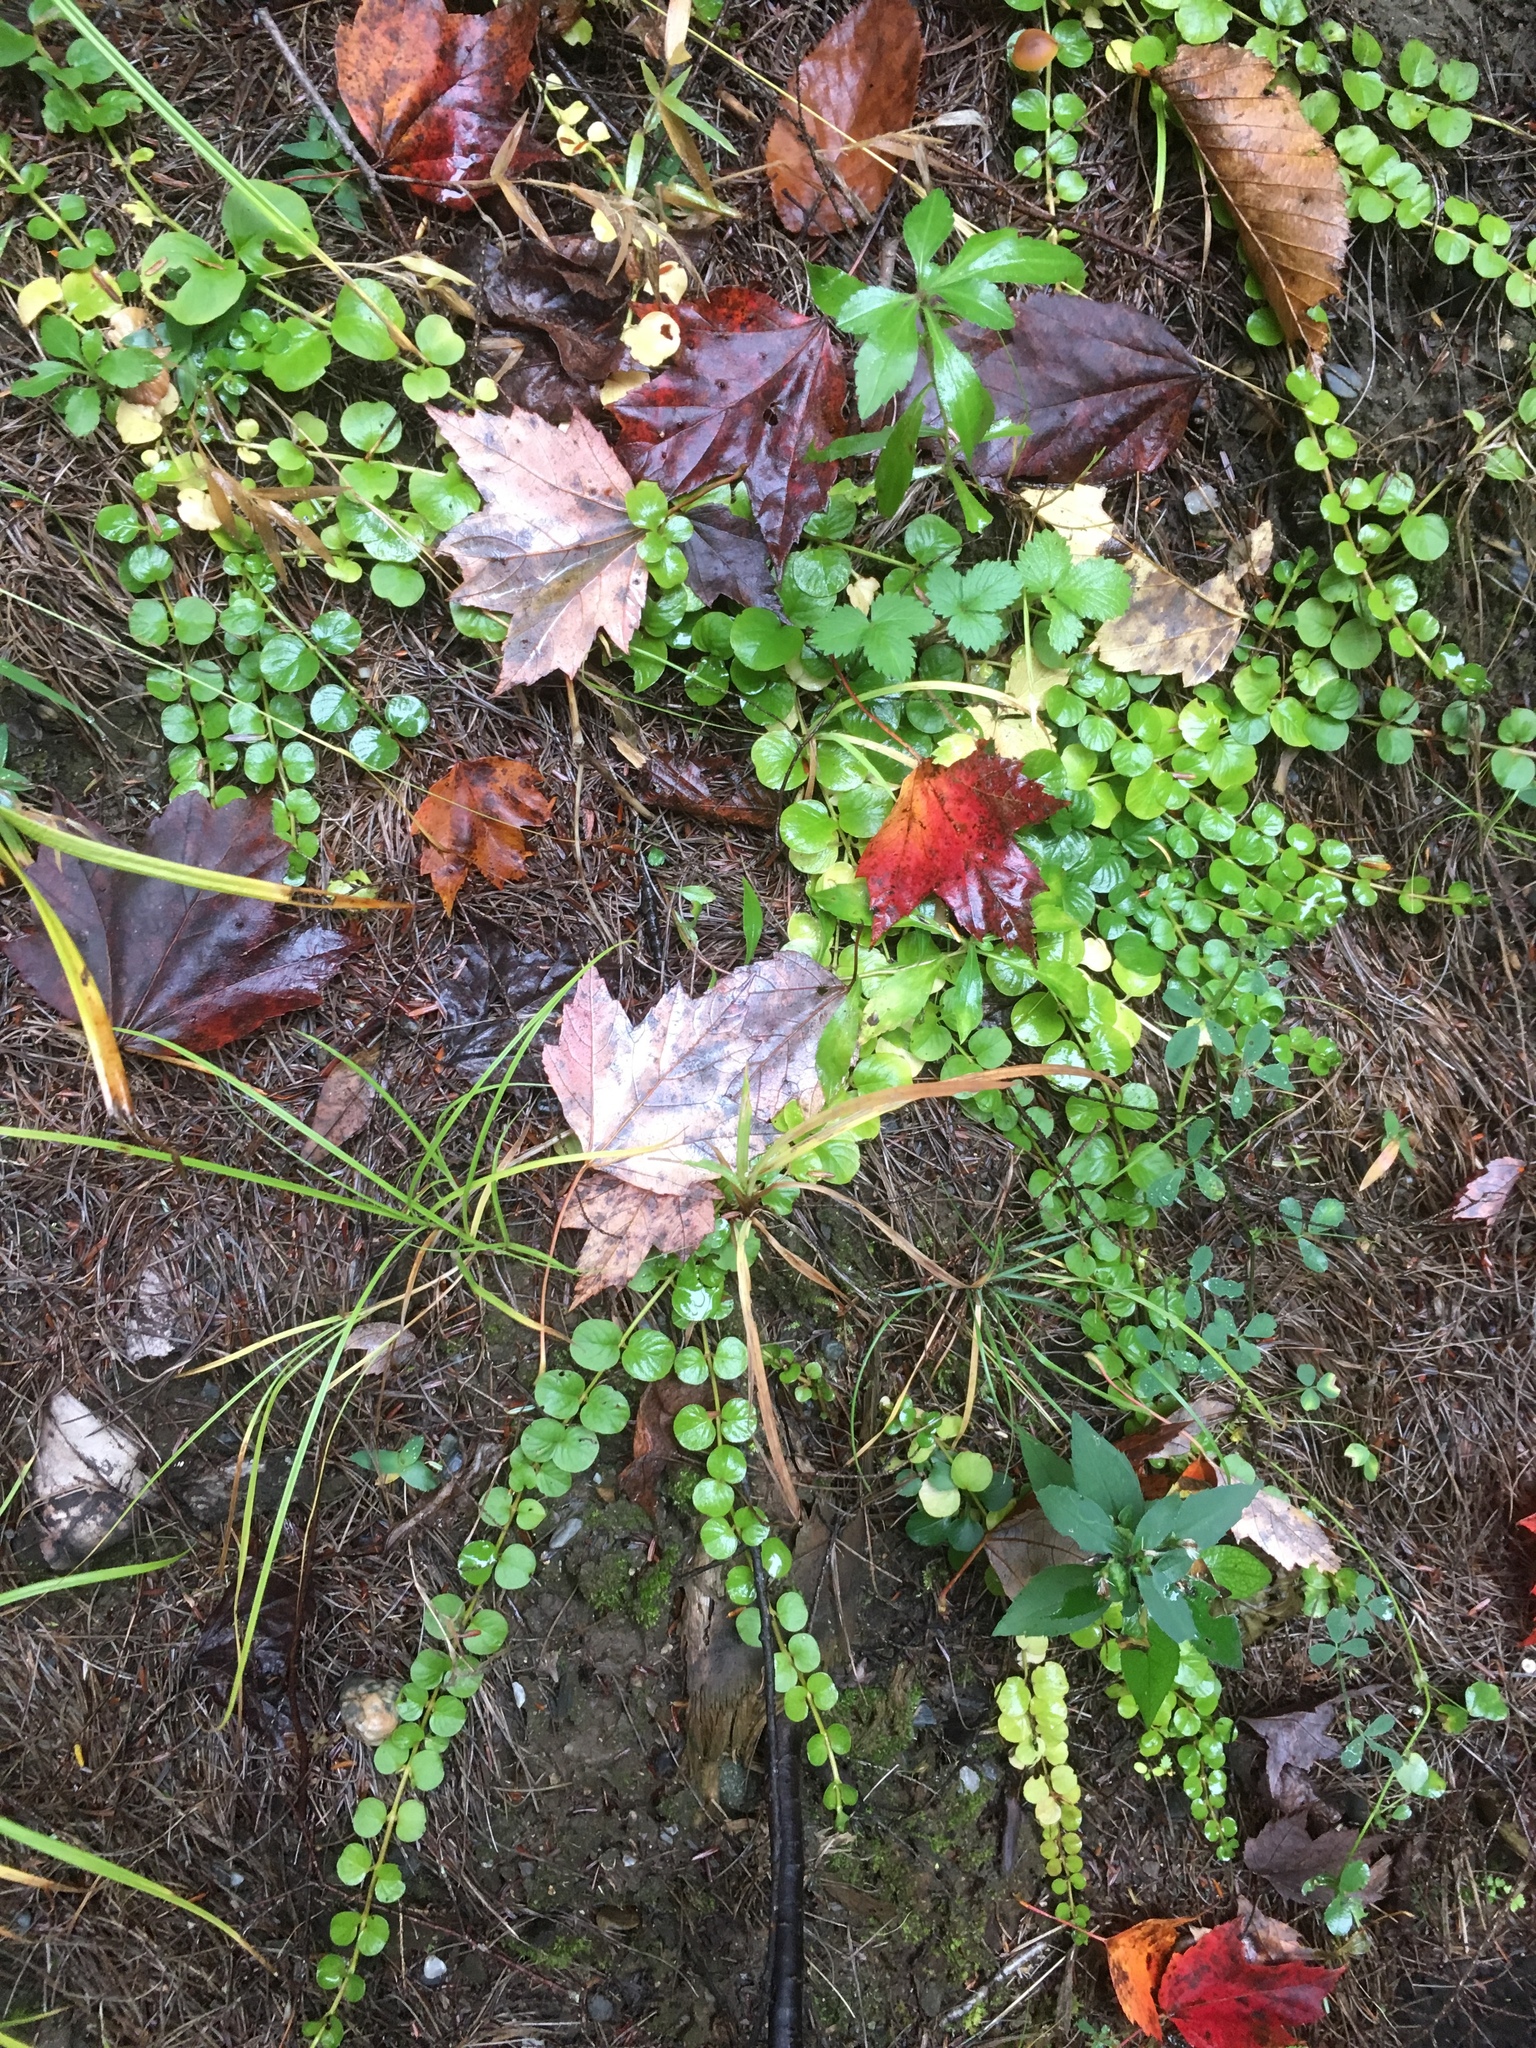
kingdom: Plantae
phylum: Tracheophyta
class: Magnoliopsida
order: Ericales
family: Primulaceae
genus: Lysimachia
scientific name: Lysimachia nummularia
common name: Moneywort
